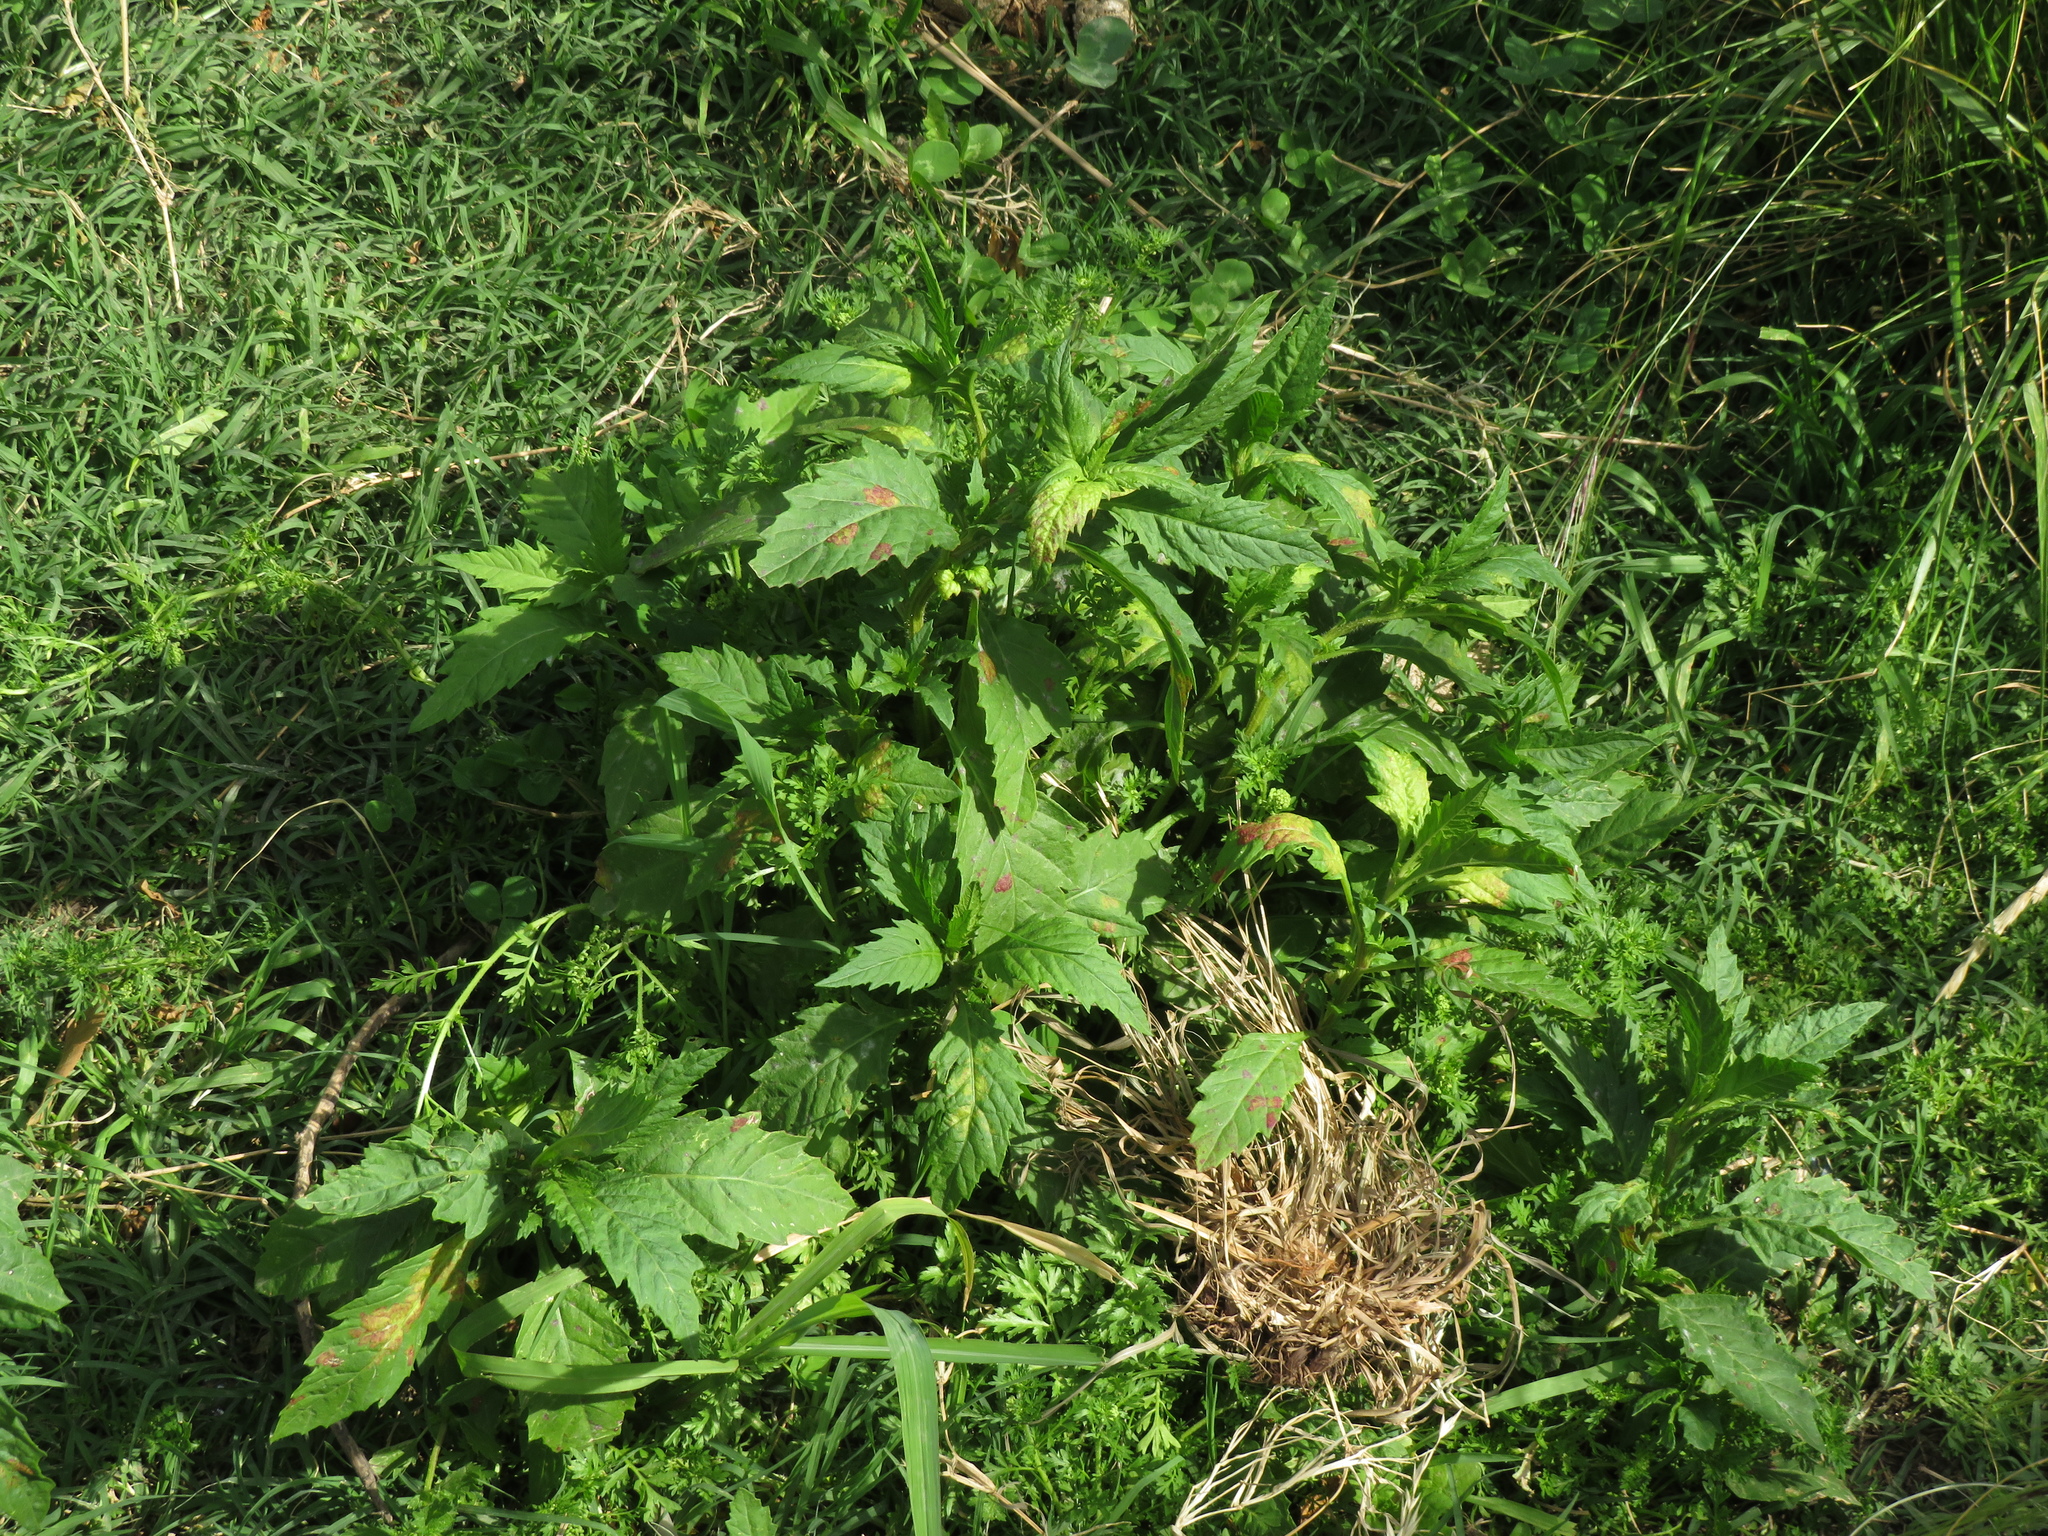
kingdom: Plantae
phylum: Tracheophyta
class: Magnoliopsida
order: Caryophyllales
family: Amaranthaceae
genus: Dysphania
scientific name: Dysphania ambrosioides
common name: Wormseed
